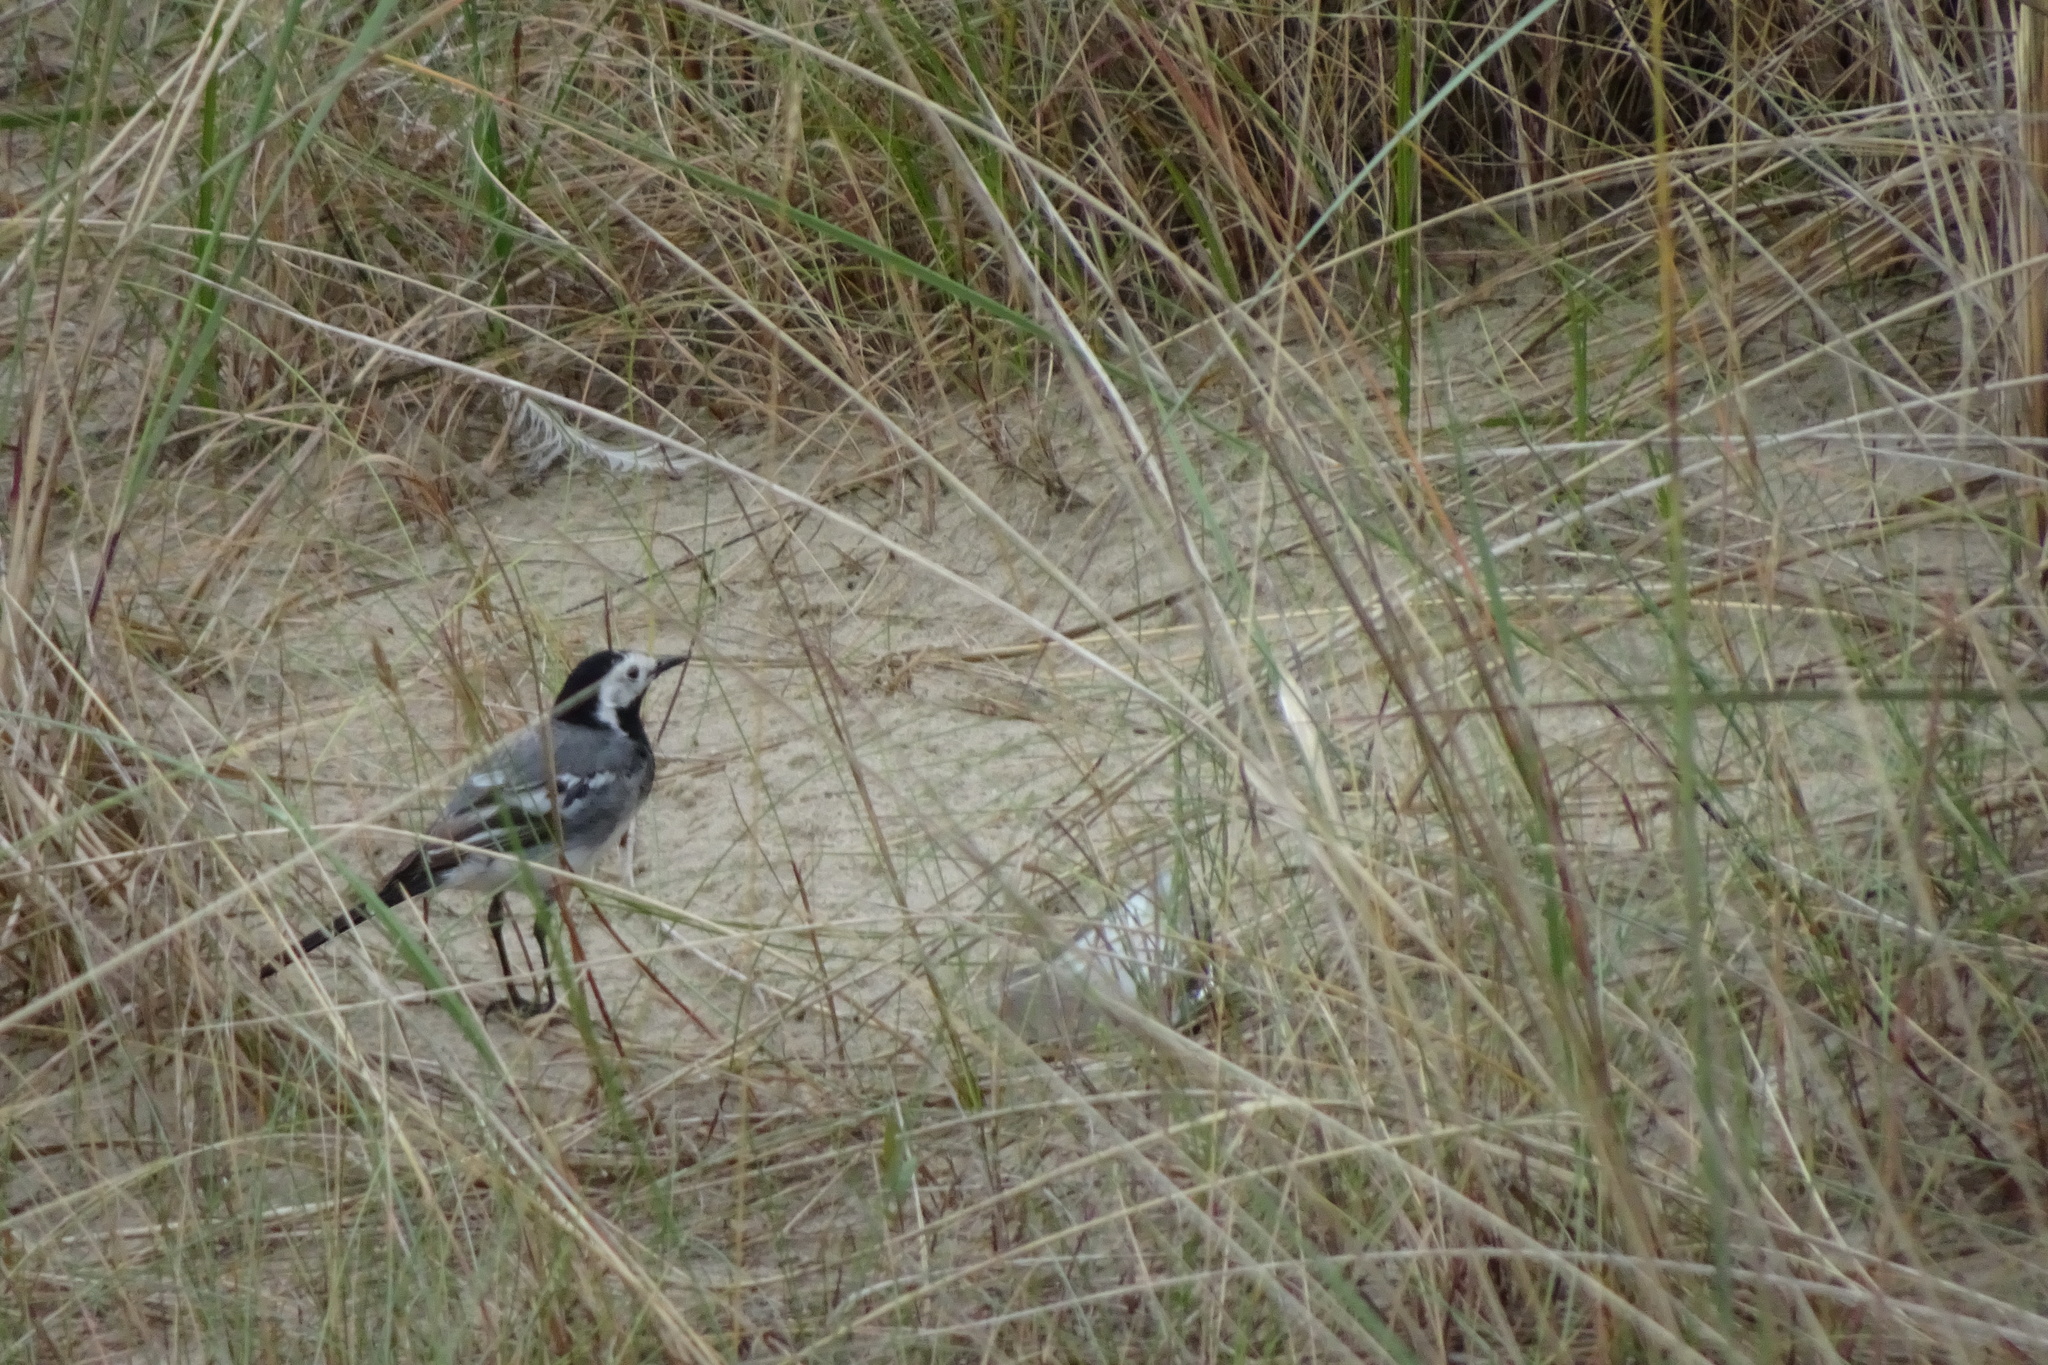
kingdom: Animalia
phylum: Chordata
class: Aves
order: Passeriformes
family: Motacillidae
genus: Motacilla
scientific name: Motacilla alba
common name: White wagtail
